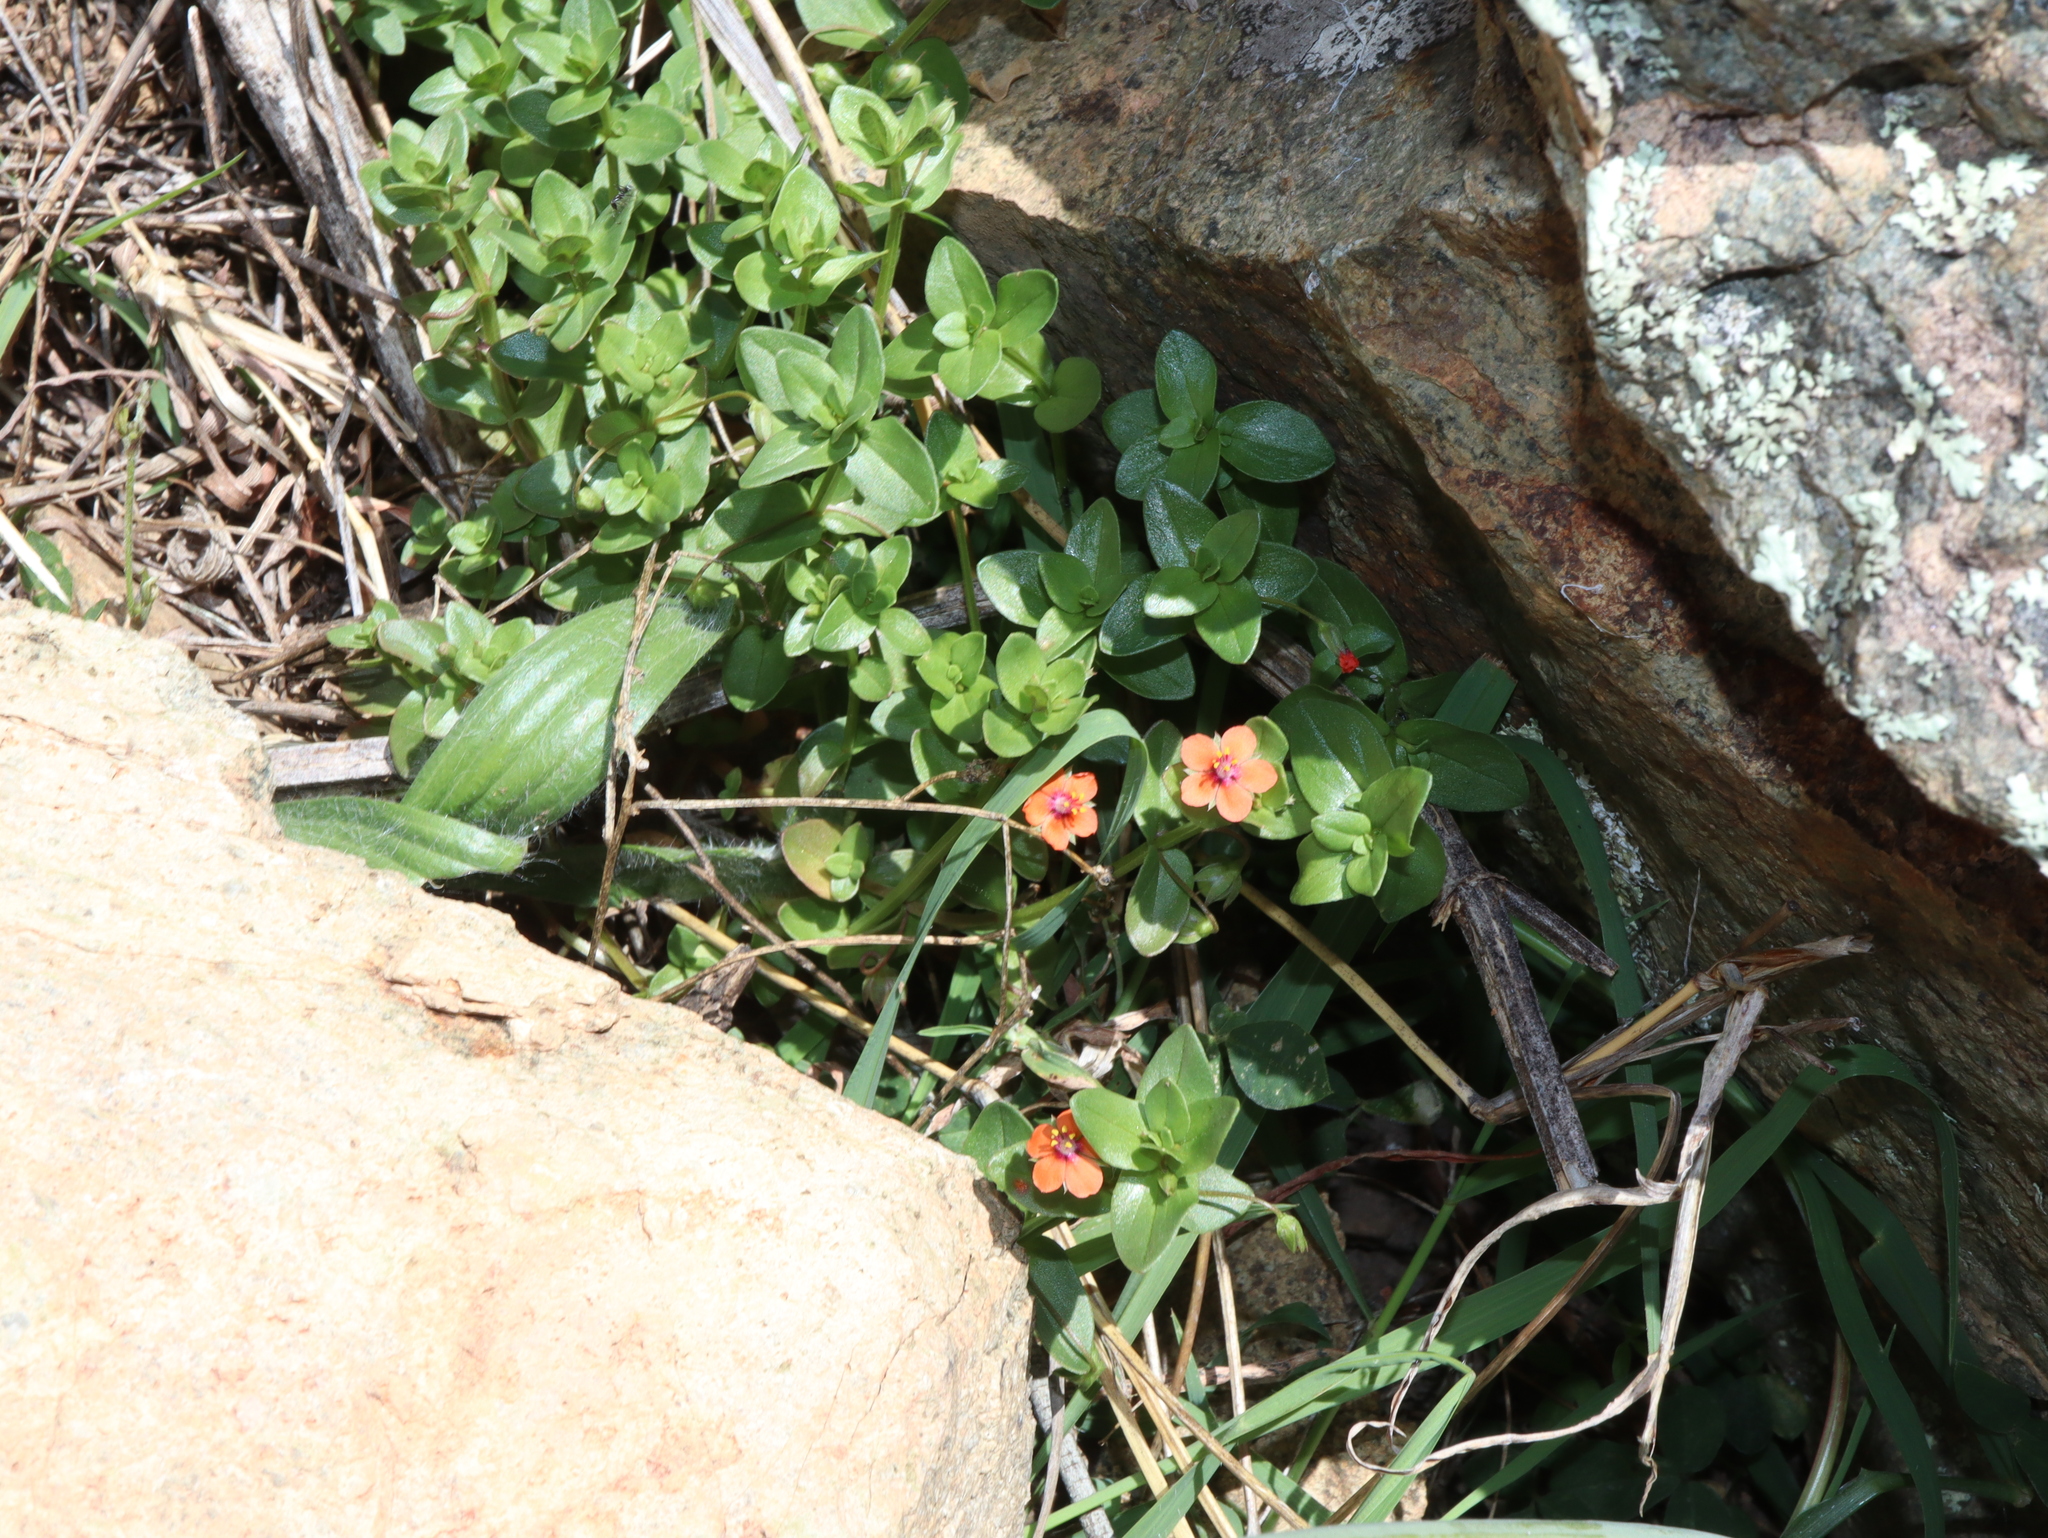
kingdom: Plantae
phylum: Tracheophyta
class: Magnoliopsida
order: Ericales
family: Primulaceae
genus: Lysimachia
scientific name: Lysimachia arvensis
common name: Scarlet pimpernel
